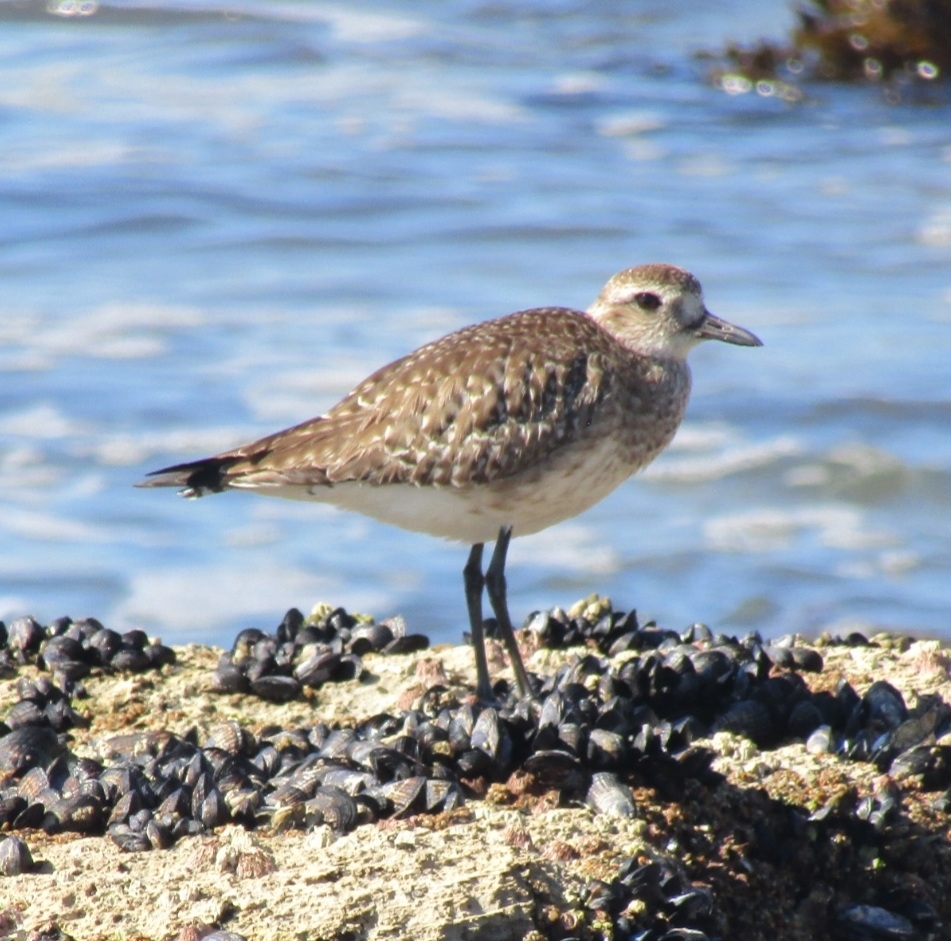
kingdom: Animalia
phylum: Chordata
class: Aves
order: Charadriiformes
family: Charadriidae
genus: Pluvialis
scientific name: Pluvialis squatarola
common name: Grey plover
